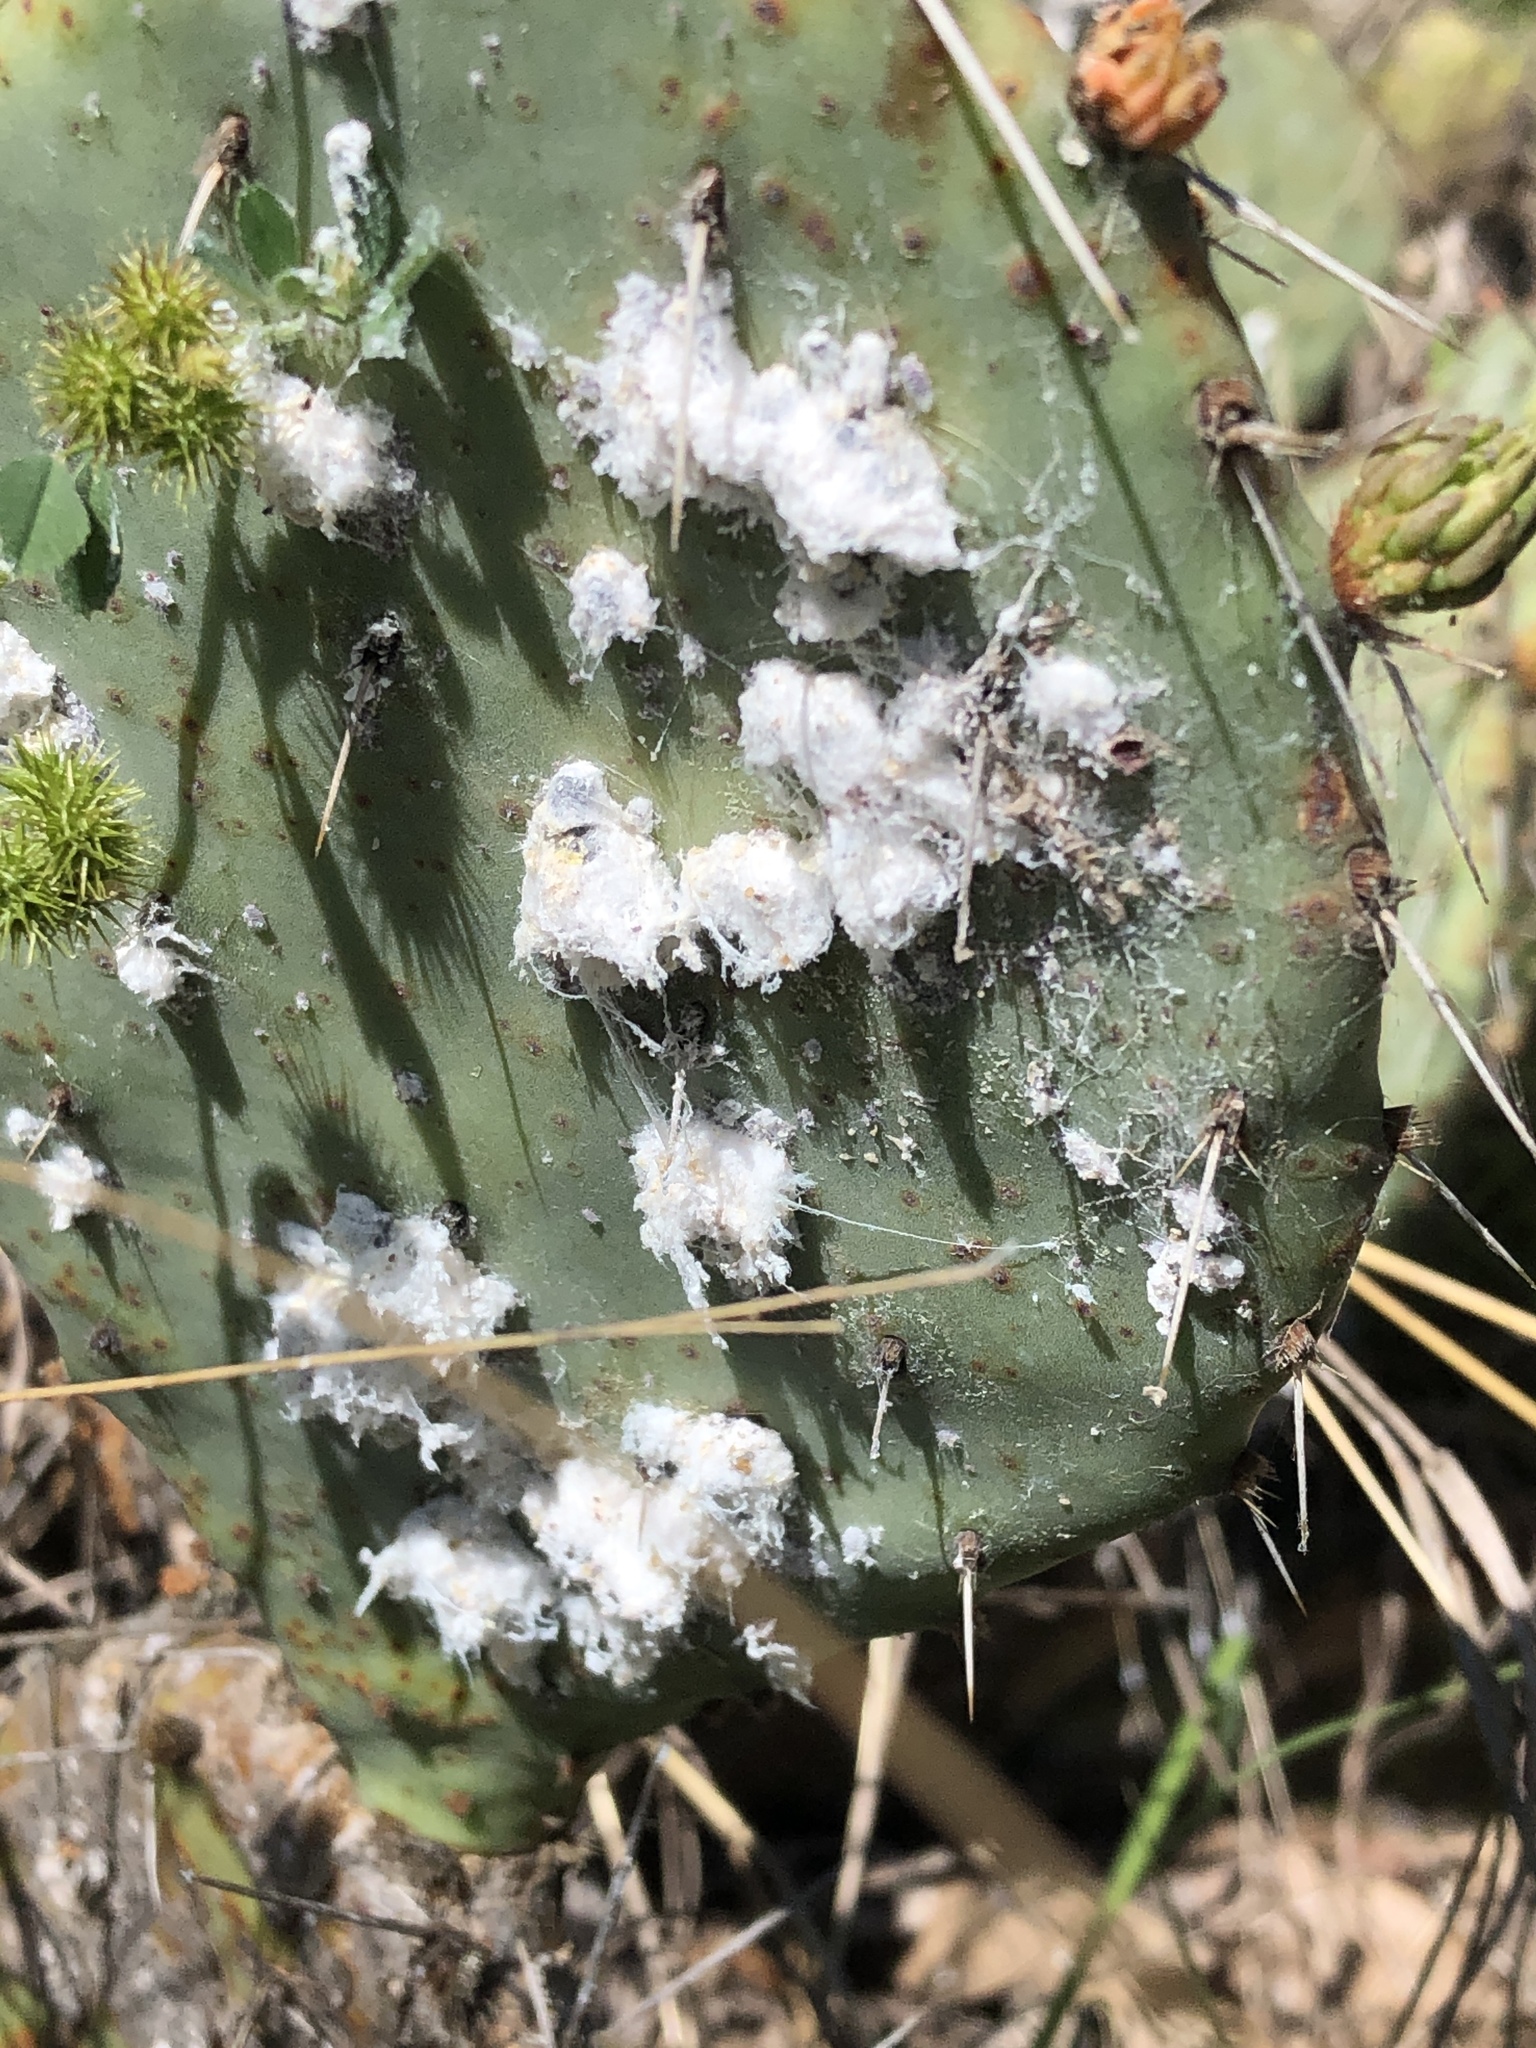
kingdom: Animalia
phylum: Arthropoda
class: Insecta
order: Hemiptera
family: Dactylopiidae
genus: Dactylopius
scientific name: Dactylopius opuntiae
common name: Opuntia cochineal scale
